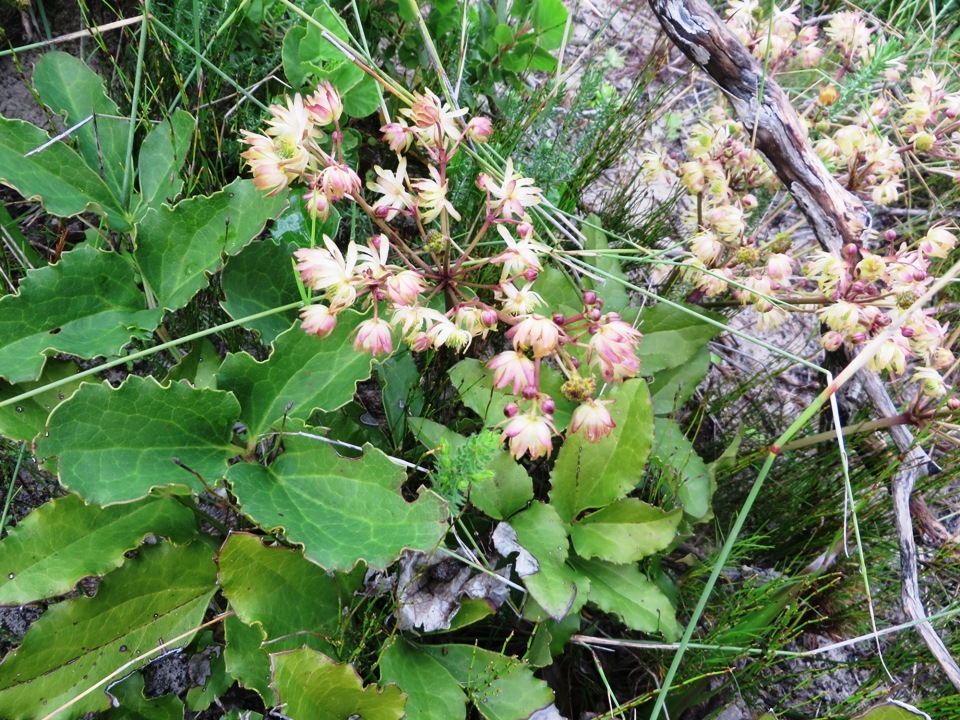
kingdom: Plantae
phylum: Tracheophyta
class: Magnoliopsida
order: Ranunculales
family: Ranunculaceae
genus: Knowltonia
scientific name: Knowltonia vesicatoria
